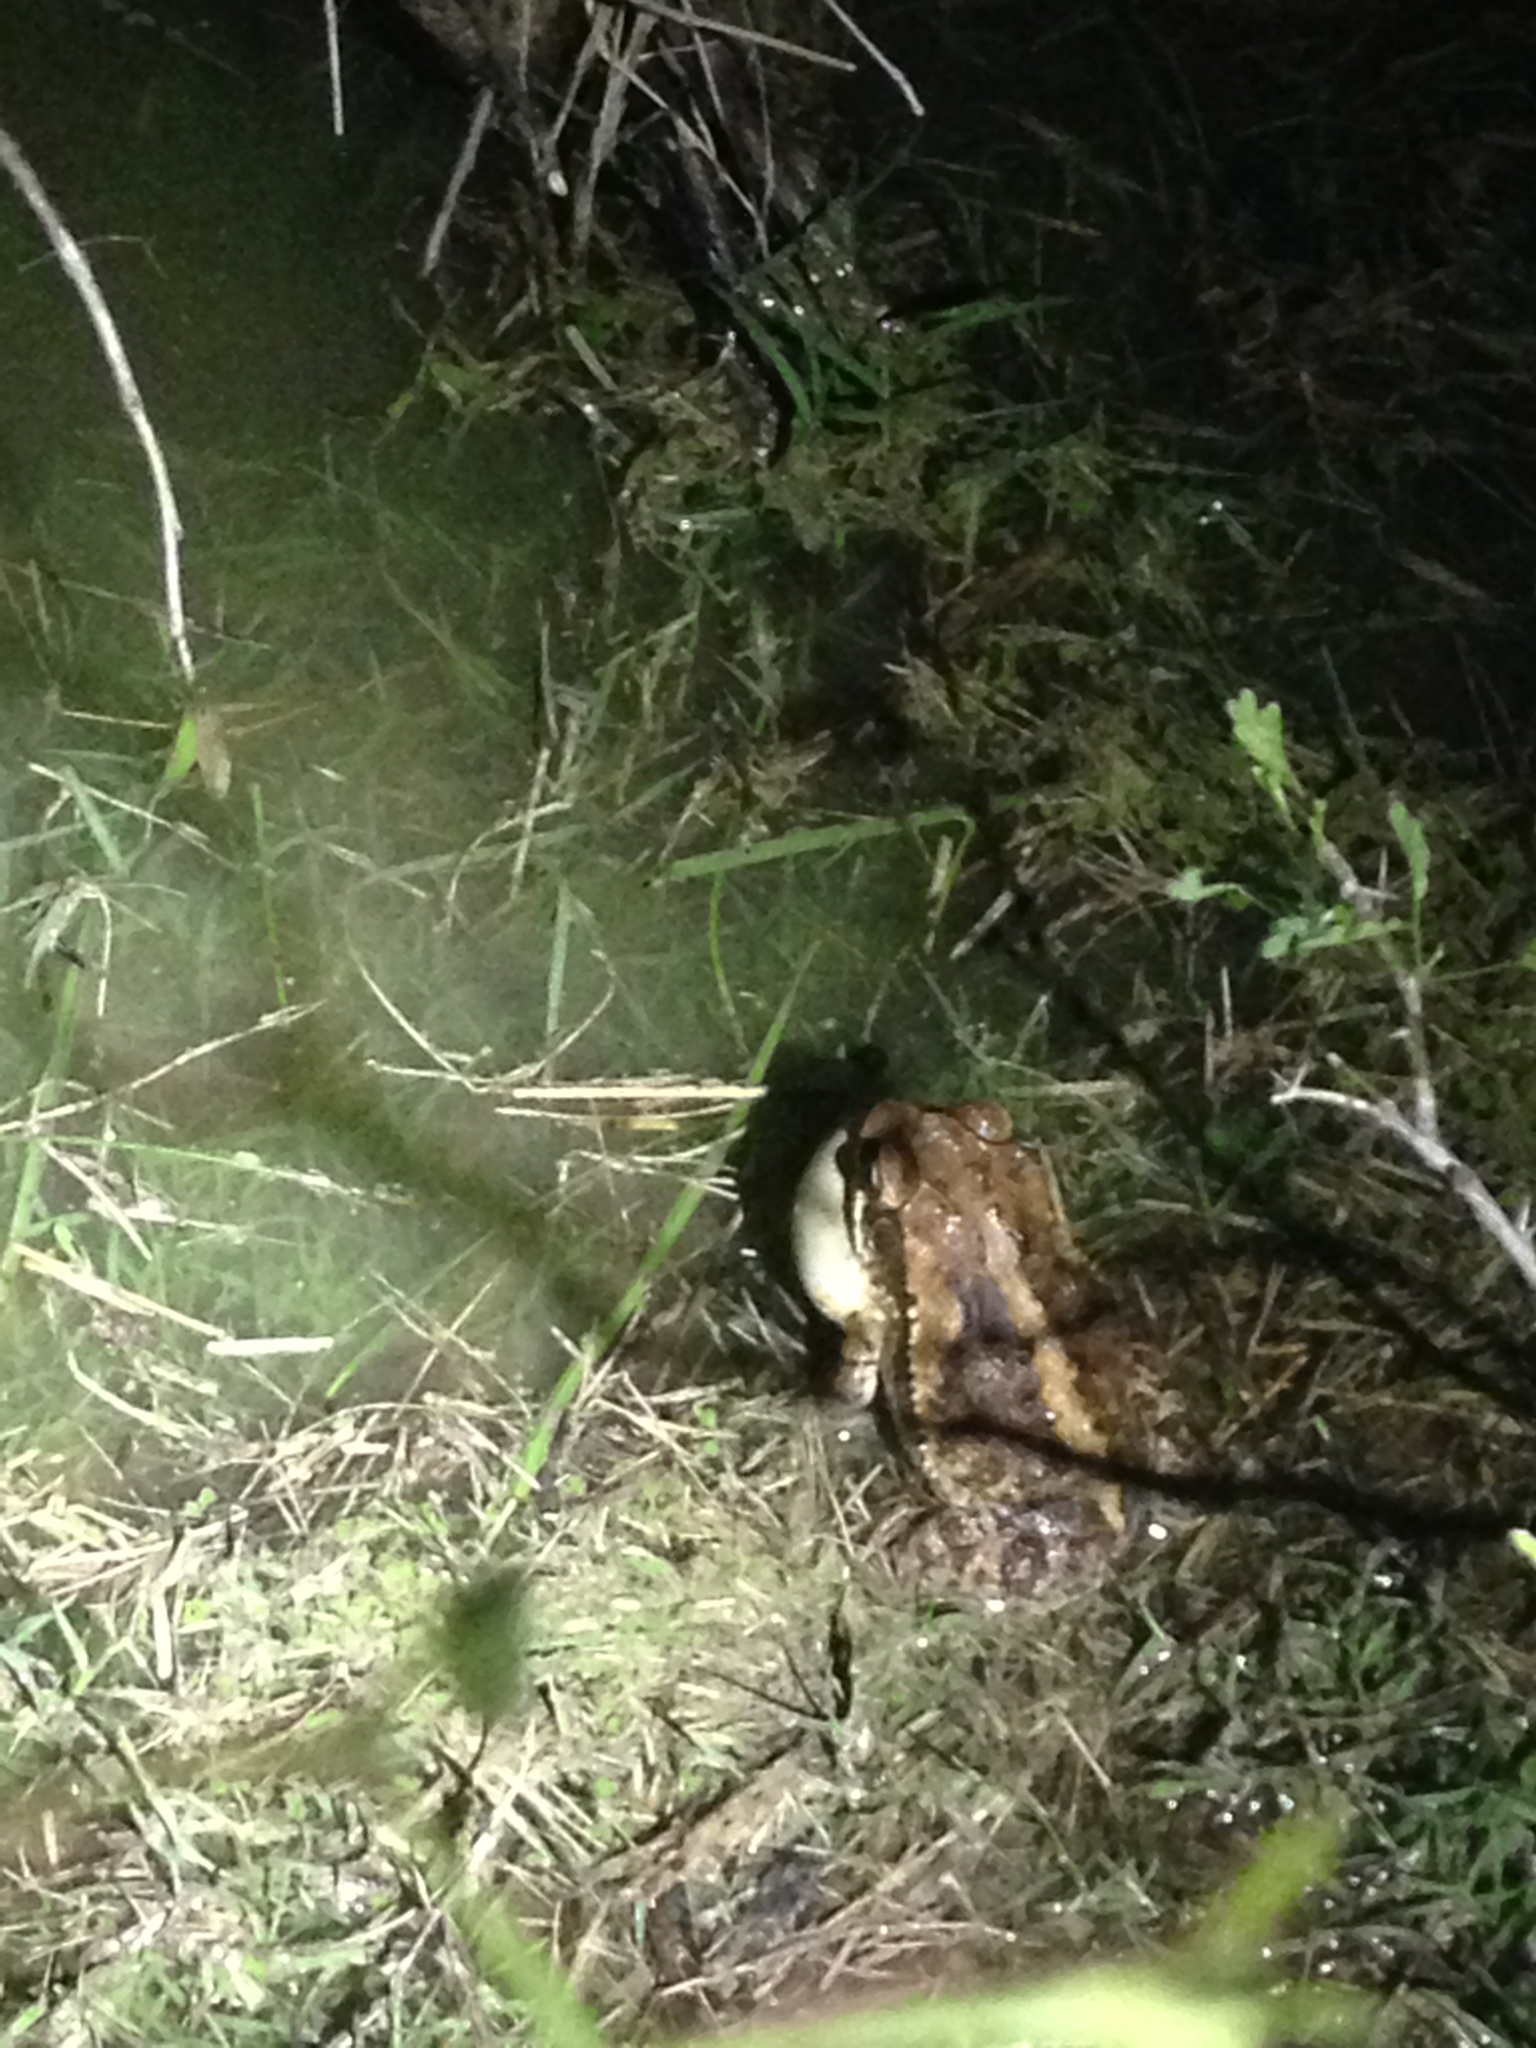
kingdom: Animalia
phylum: Chordata
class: Amphibia
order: Anura
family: Bufonidae
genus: Incilius
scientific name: Incilius nebulifer
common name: Gulf coast toad
